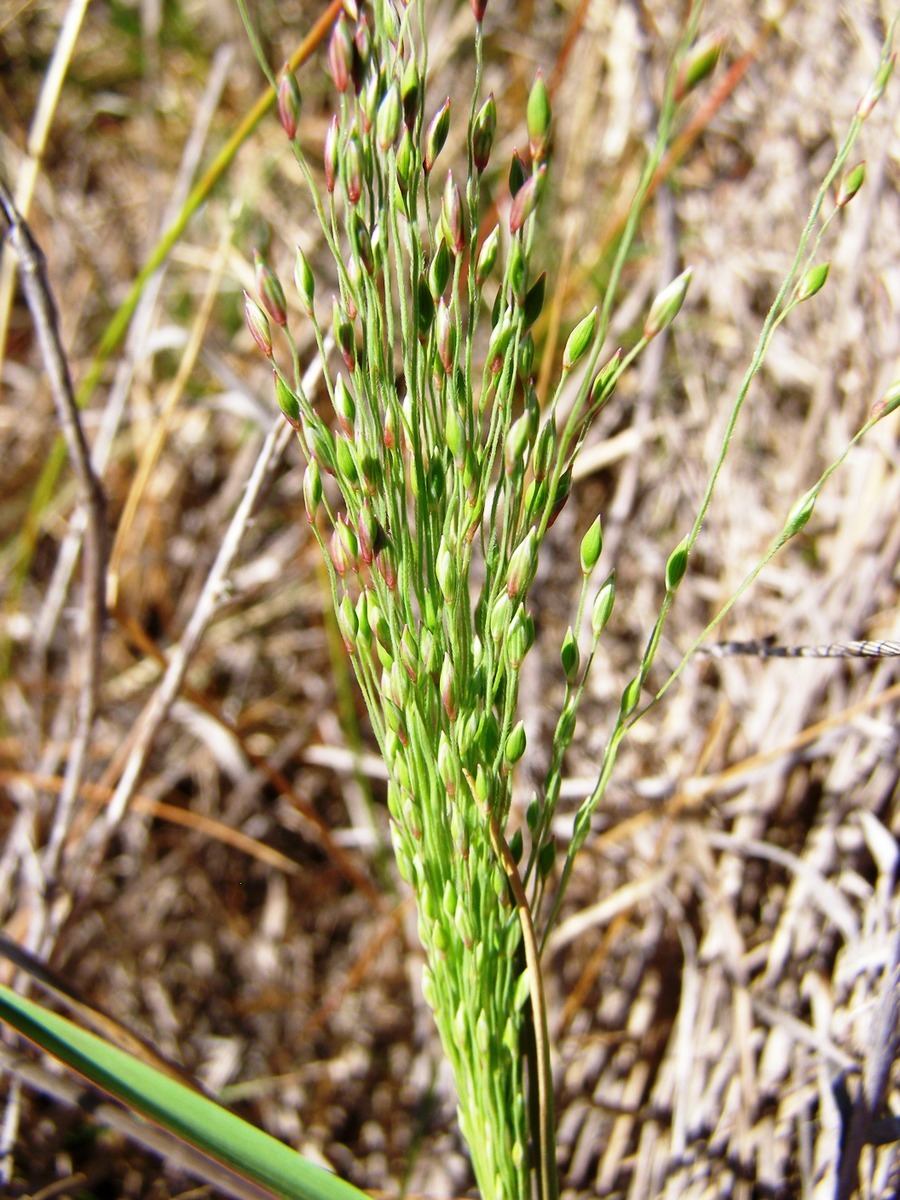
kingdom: Plantae
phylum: Tracheophyta
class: Liliopsida
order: Poales
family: Poaceae
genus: Walwhalleya
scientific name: Walwhalleya proluta
